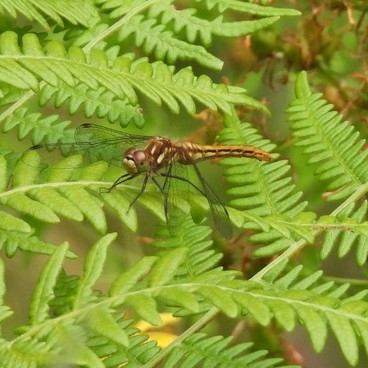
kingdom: Animalia
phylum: Arthropoda
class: Insecta
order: Odonata
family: Libellulidae
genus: Sympetrum
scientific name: Sympetrum pallipes
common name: Striped meadowhawk
